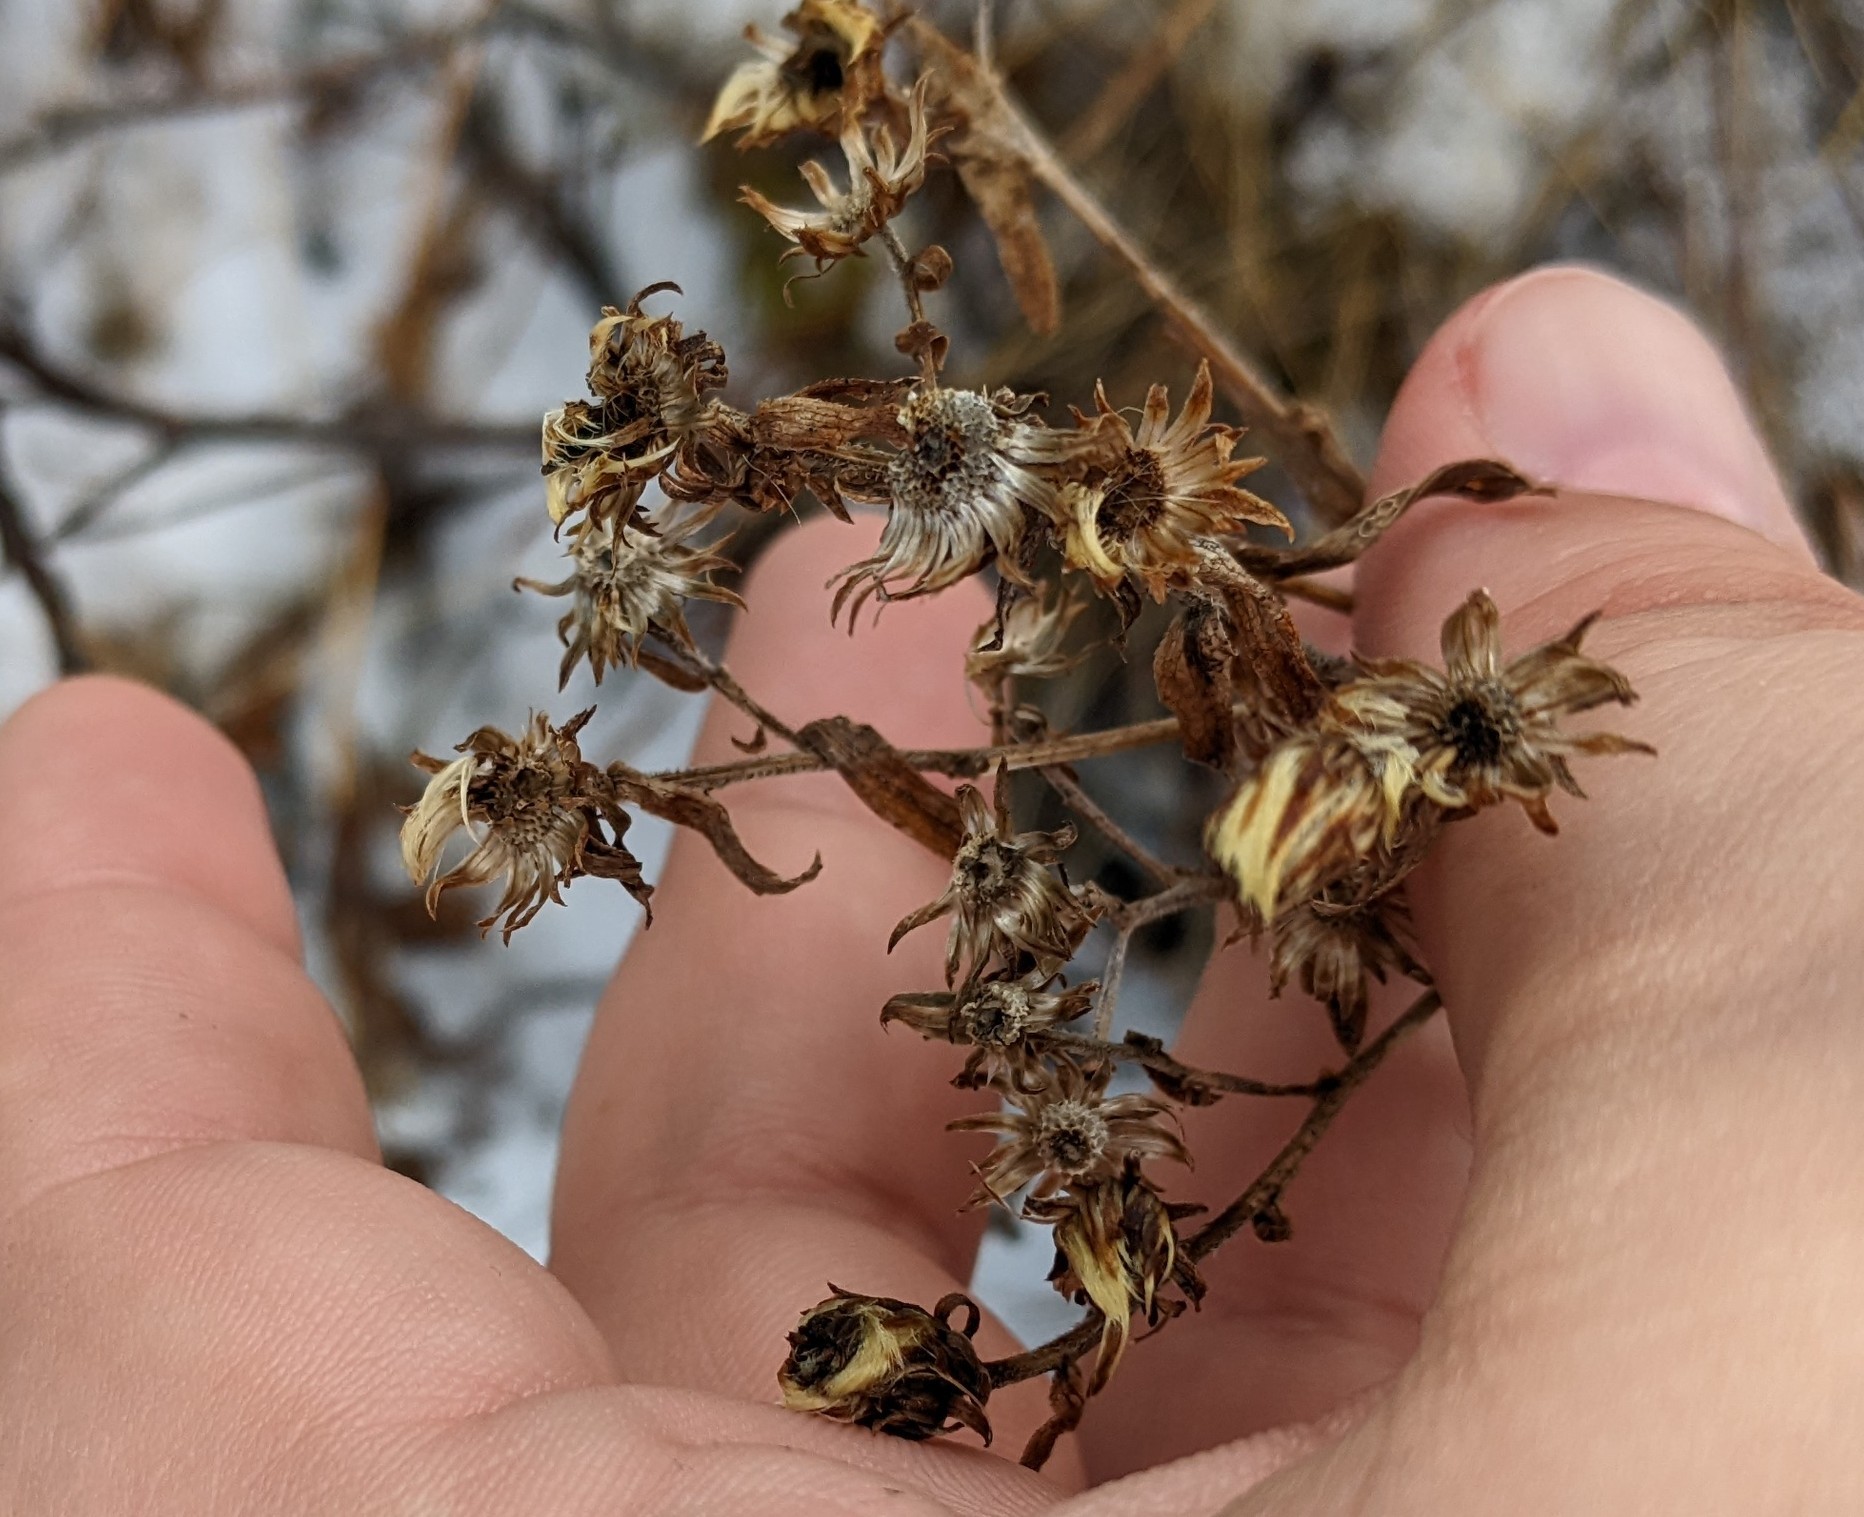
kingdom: Plantae
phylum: Tracheophyta
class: Magnoliopsida
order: Asterales
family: Asteraceae
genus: Symphyotrichum
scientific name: Symphyotrichum novi-belgii
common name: Michaelmas daisy
